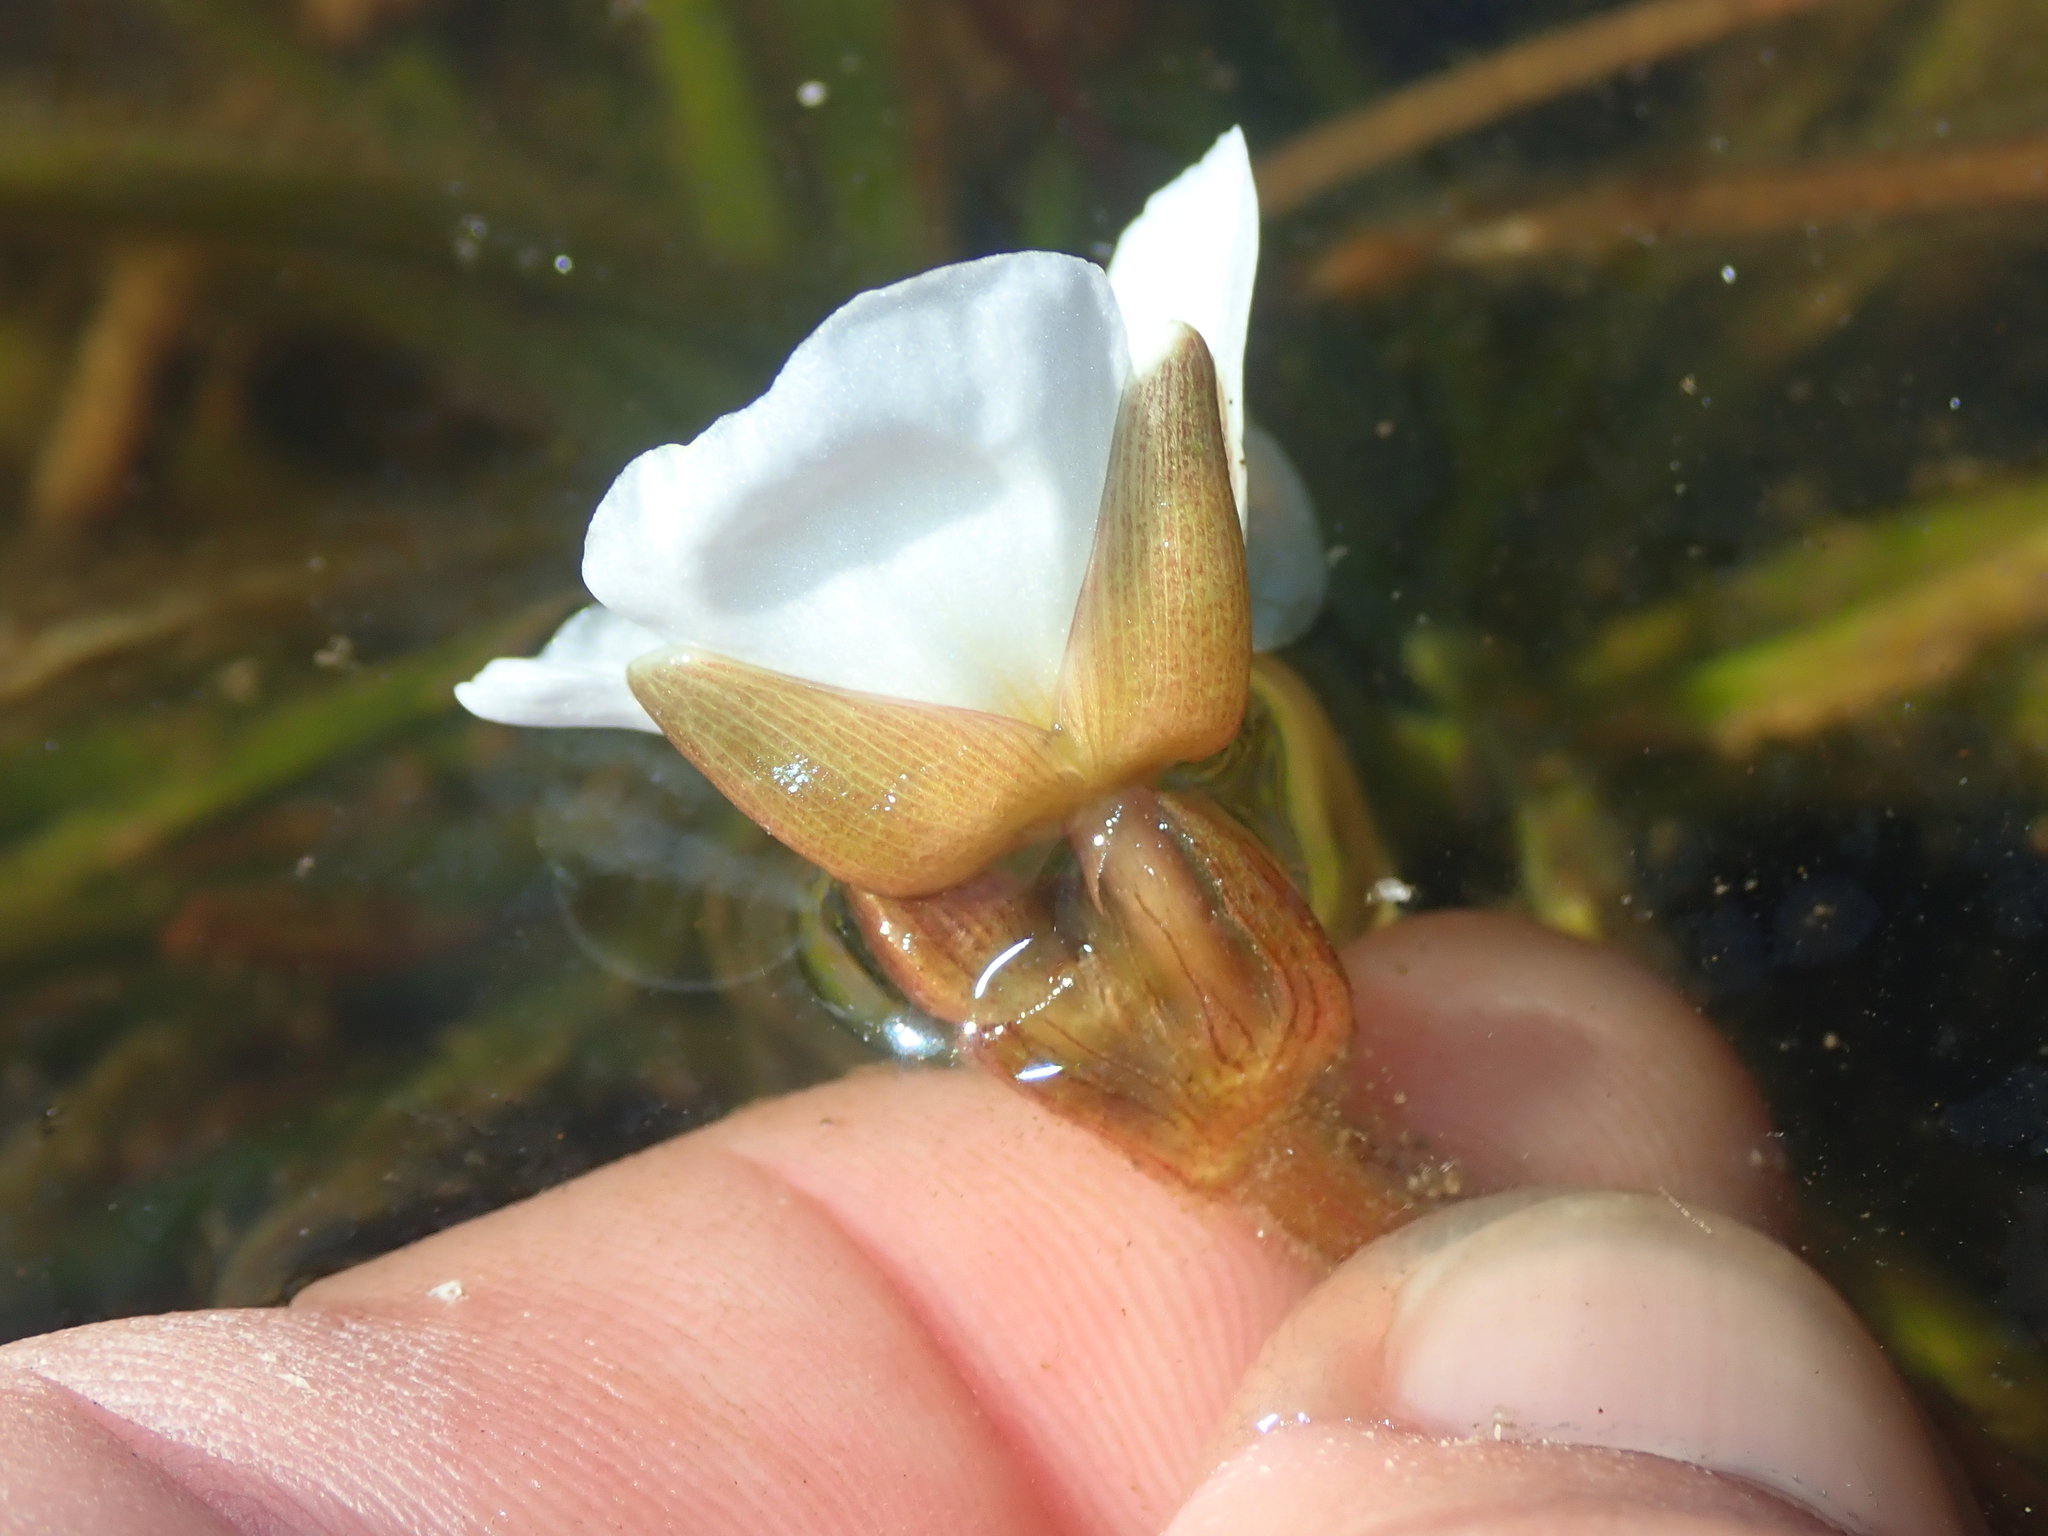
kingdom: Plantae
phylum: Tracheophyta
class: Liliopsida
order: Alismatales
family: Alismataceae
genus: Sagittaria
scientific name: Sagittaria guayanensis
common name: Guyanese arrowhead
